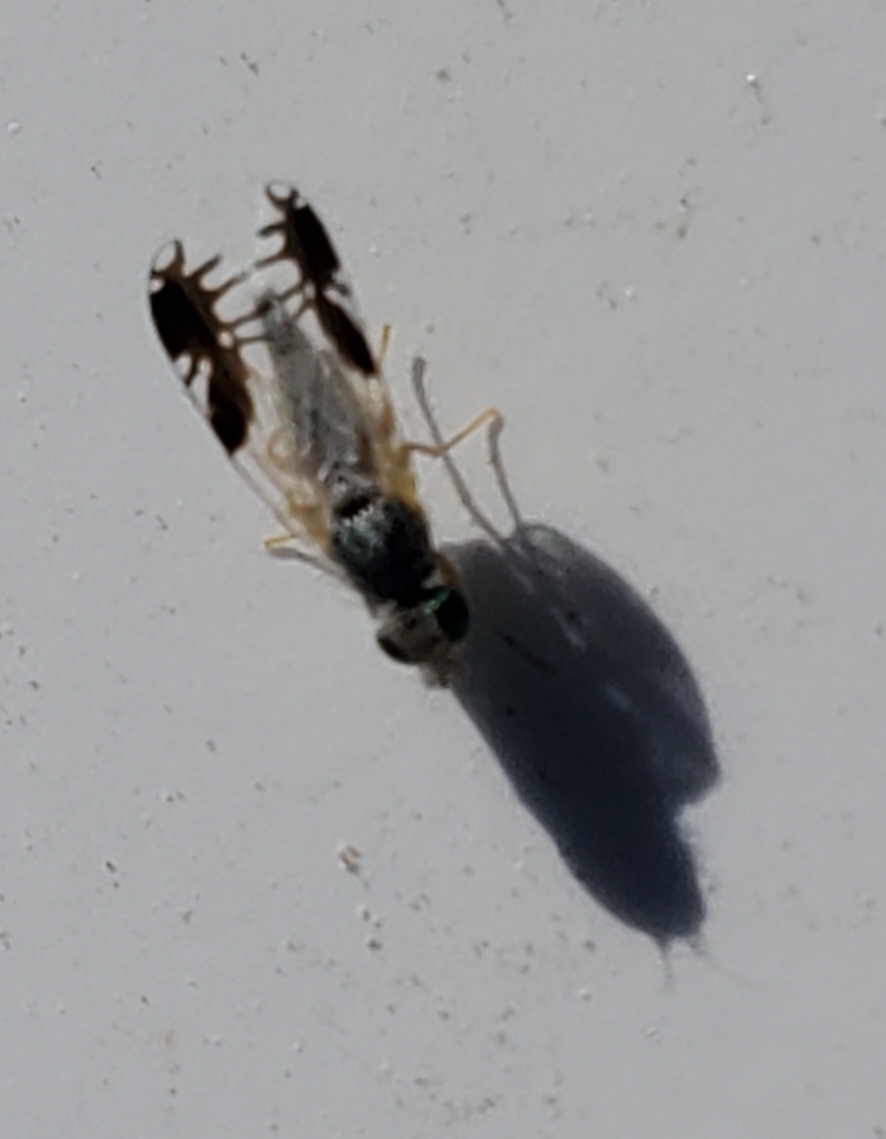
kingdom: Animalia
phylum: Arthropoda
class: Insecta
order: Diptera
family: Tephritidae
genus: Trupanea
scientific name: Trupanea bisetosa
